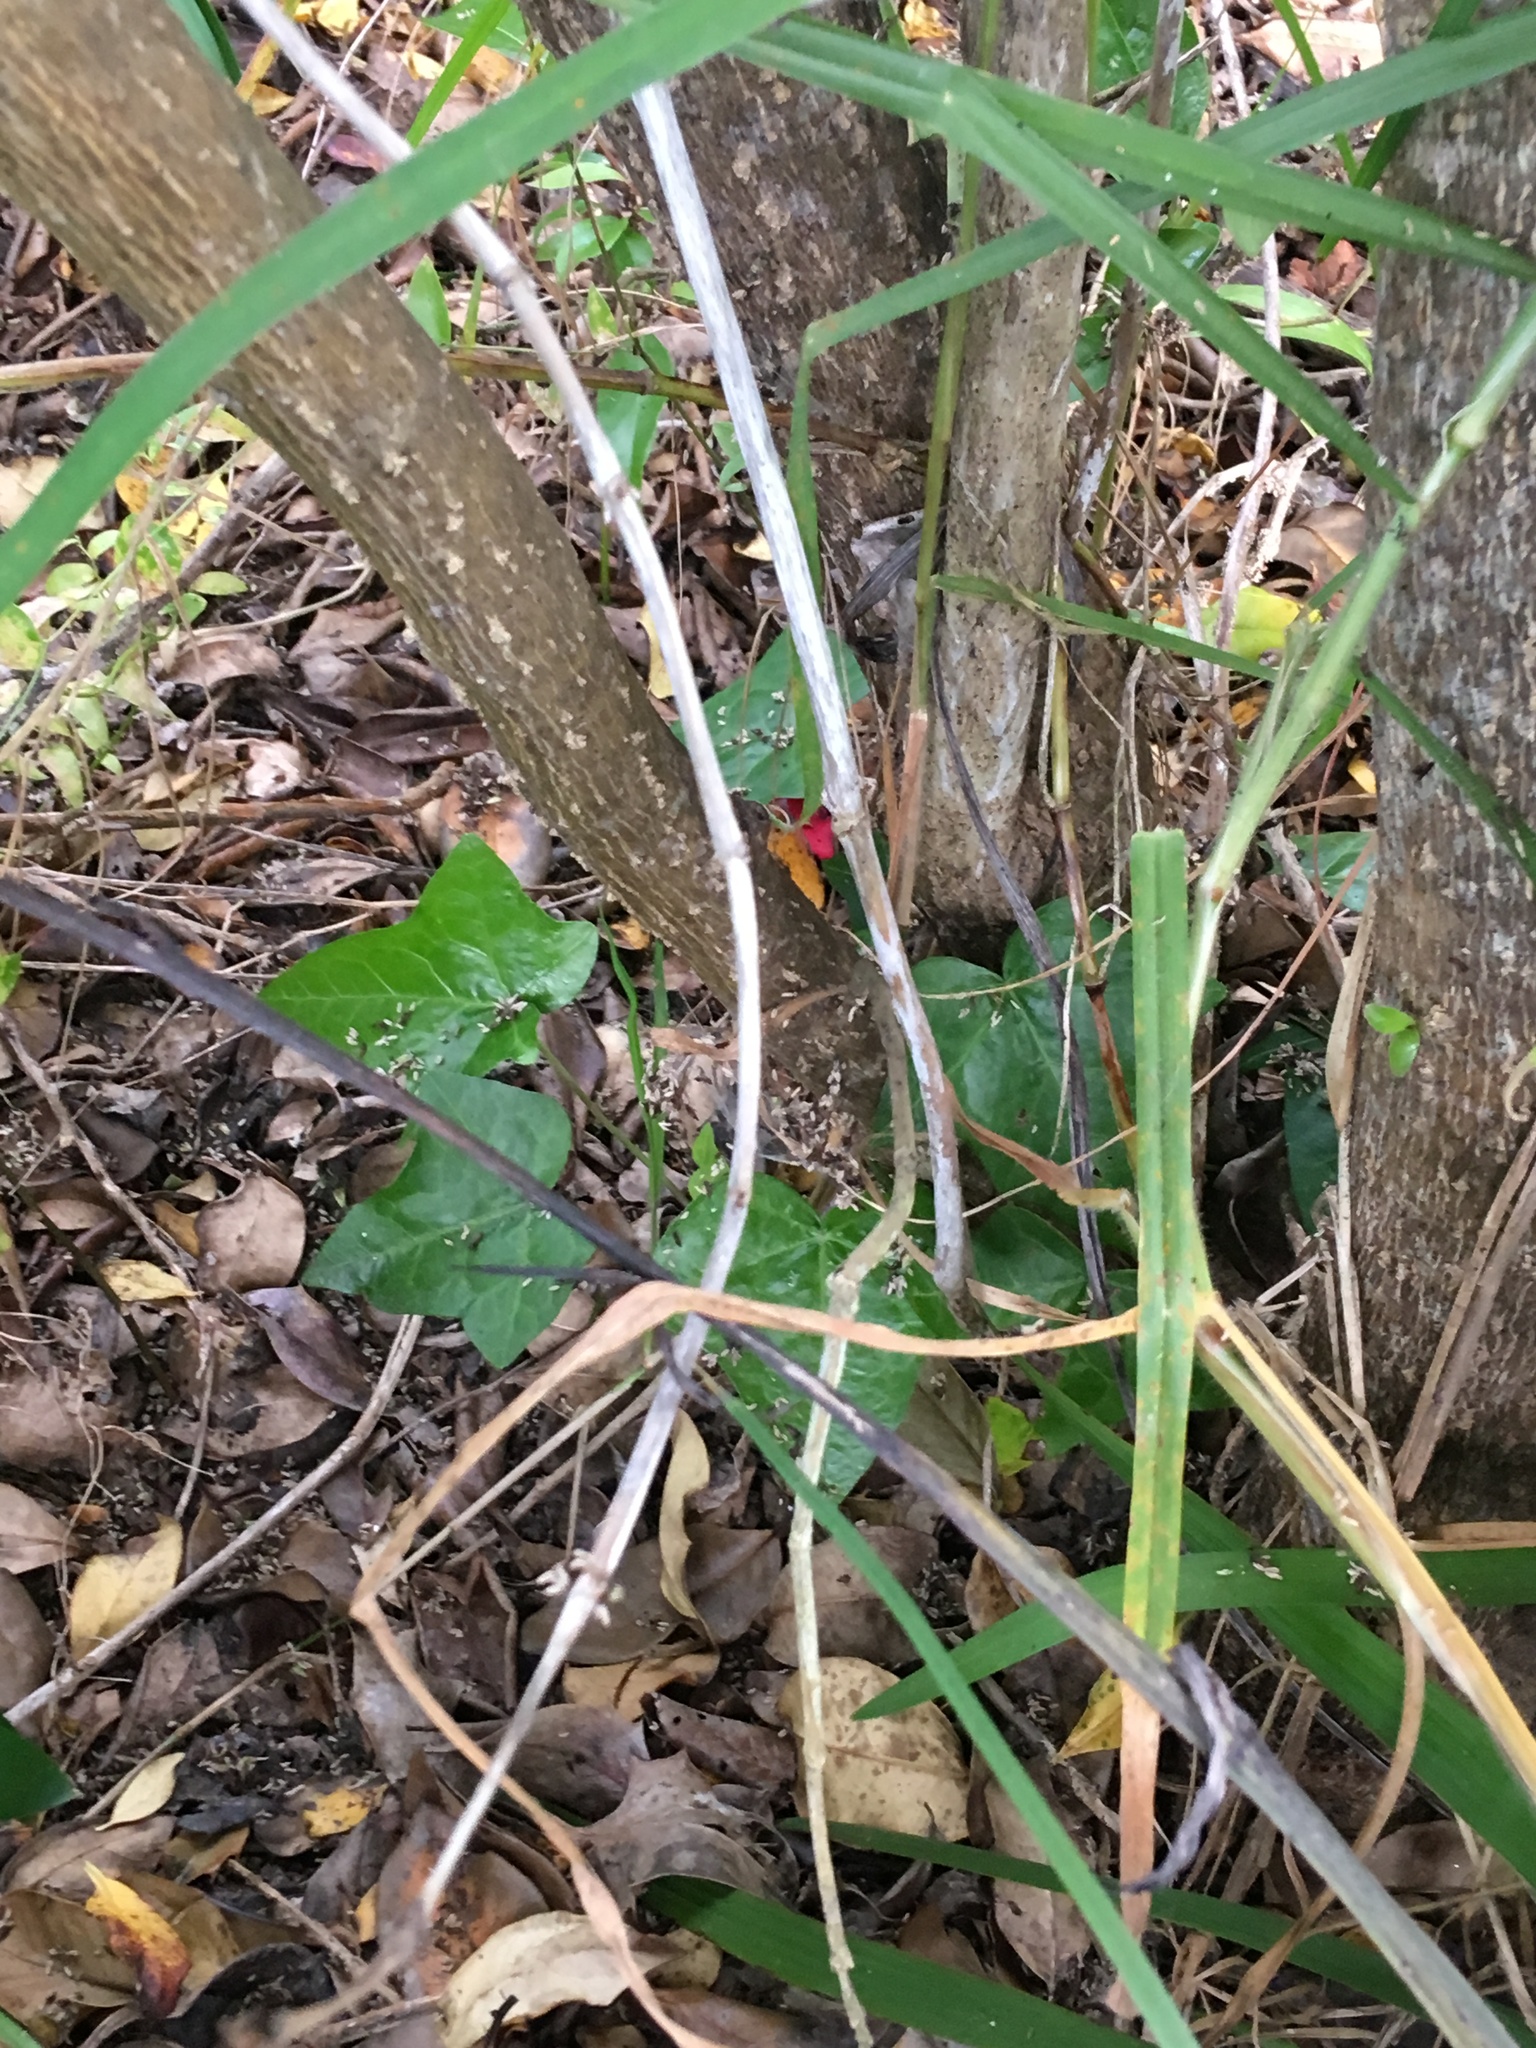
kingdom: Plantae
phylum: Tracheophyta
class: Magnoliopsida
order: Apiales
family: Araliaceae
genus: Hedera
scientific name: Hedera helix
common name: Ivy
